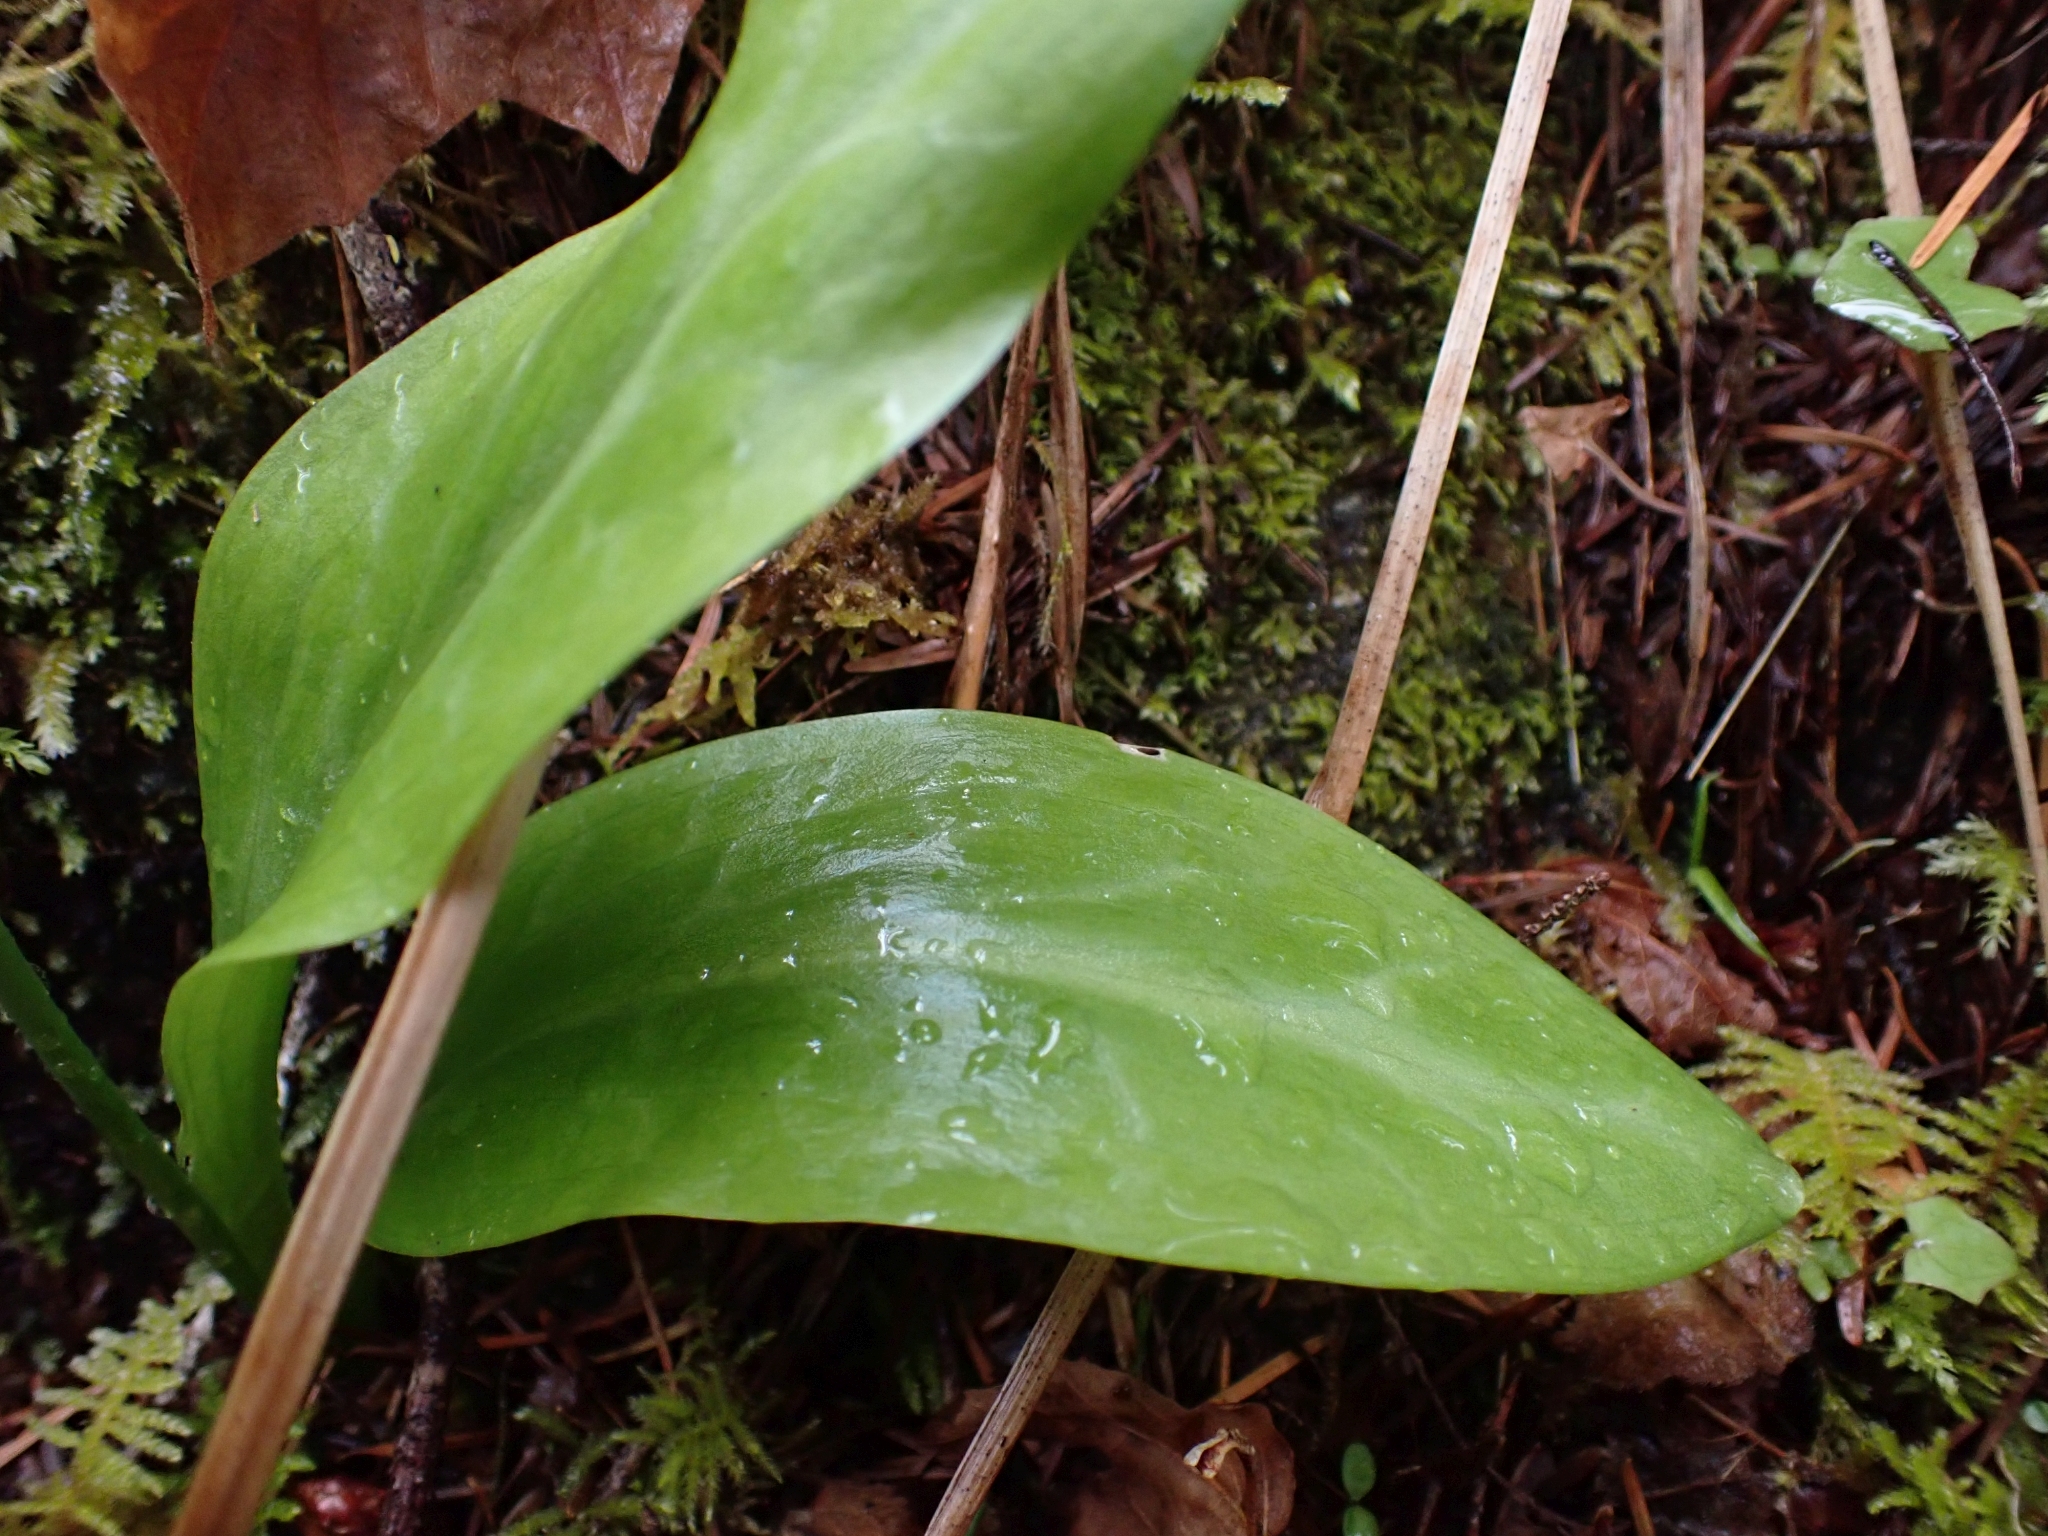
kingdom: Plantae
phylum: Tracheophyta
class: Liliopsida
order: Liliales
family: Liliaceae
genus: Erythronium
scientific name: Erythronium oregonum
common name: Giant adder's-tongue
